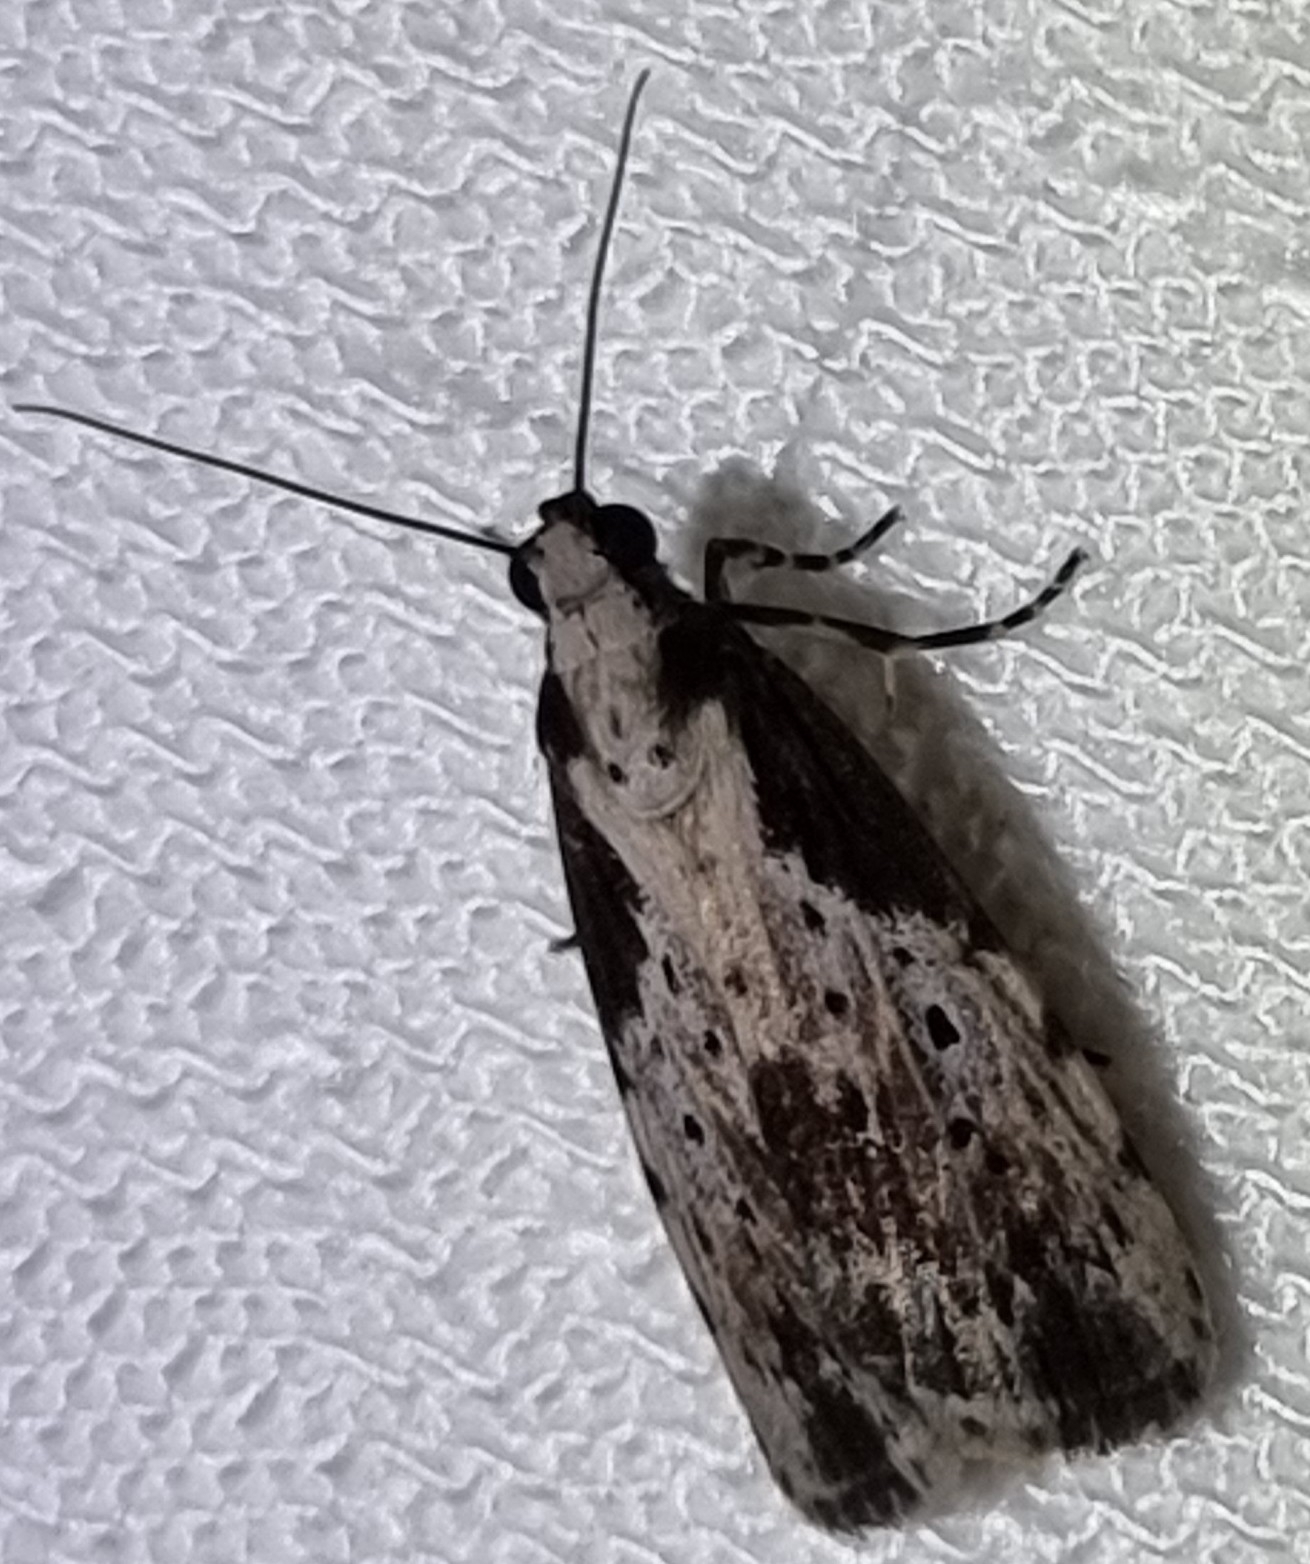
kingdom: Animalia
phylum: Arthropoda
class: Insecta
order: Lepidoptera
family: Erebidae
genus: Digama
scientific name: Digama Sommeria marmorea
